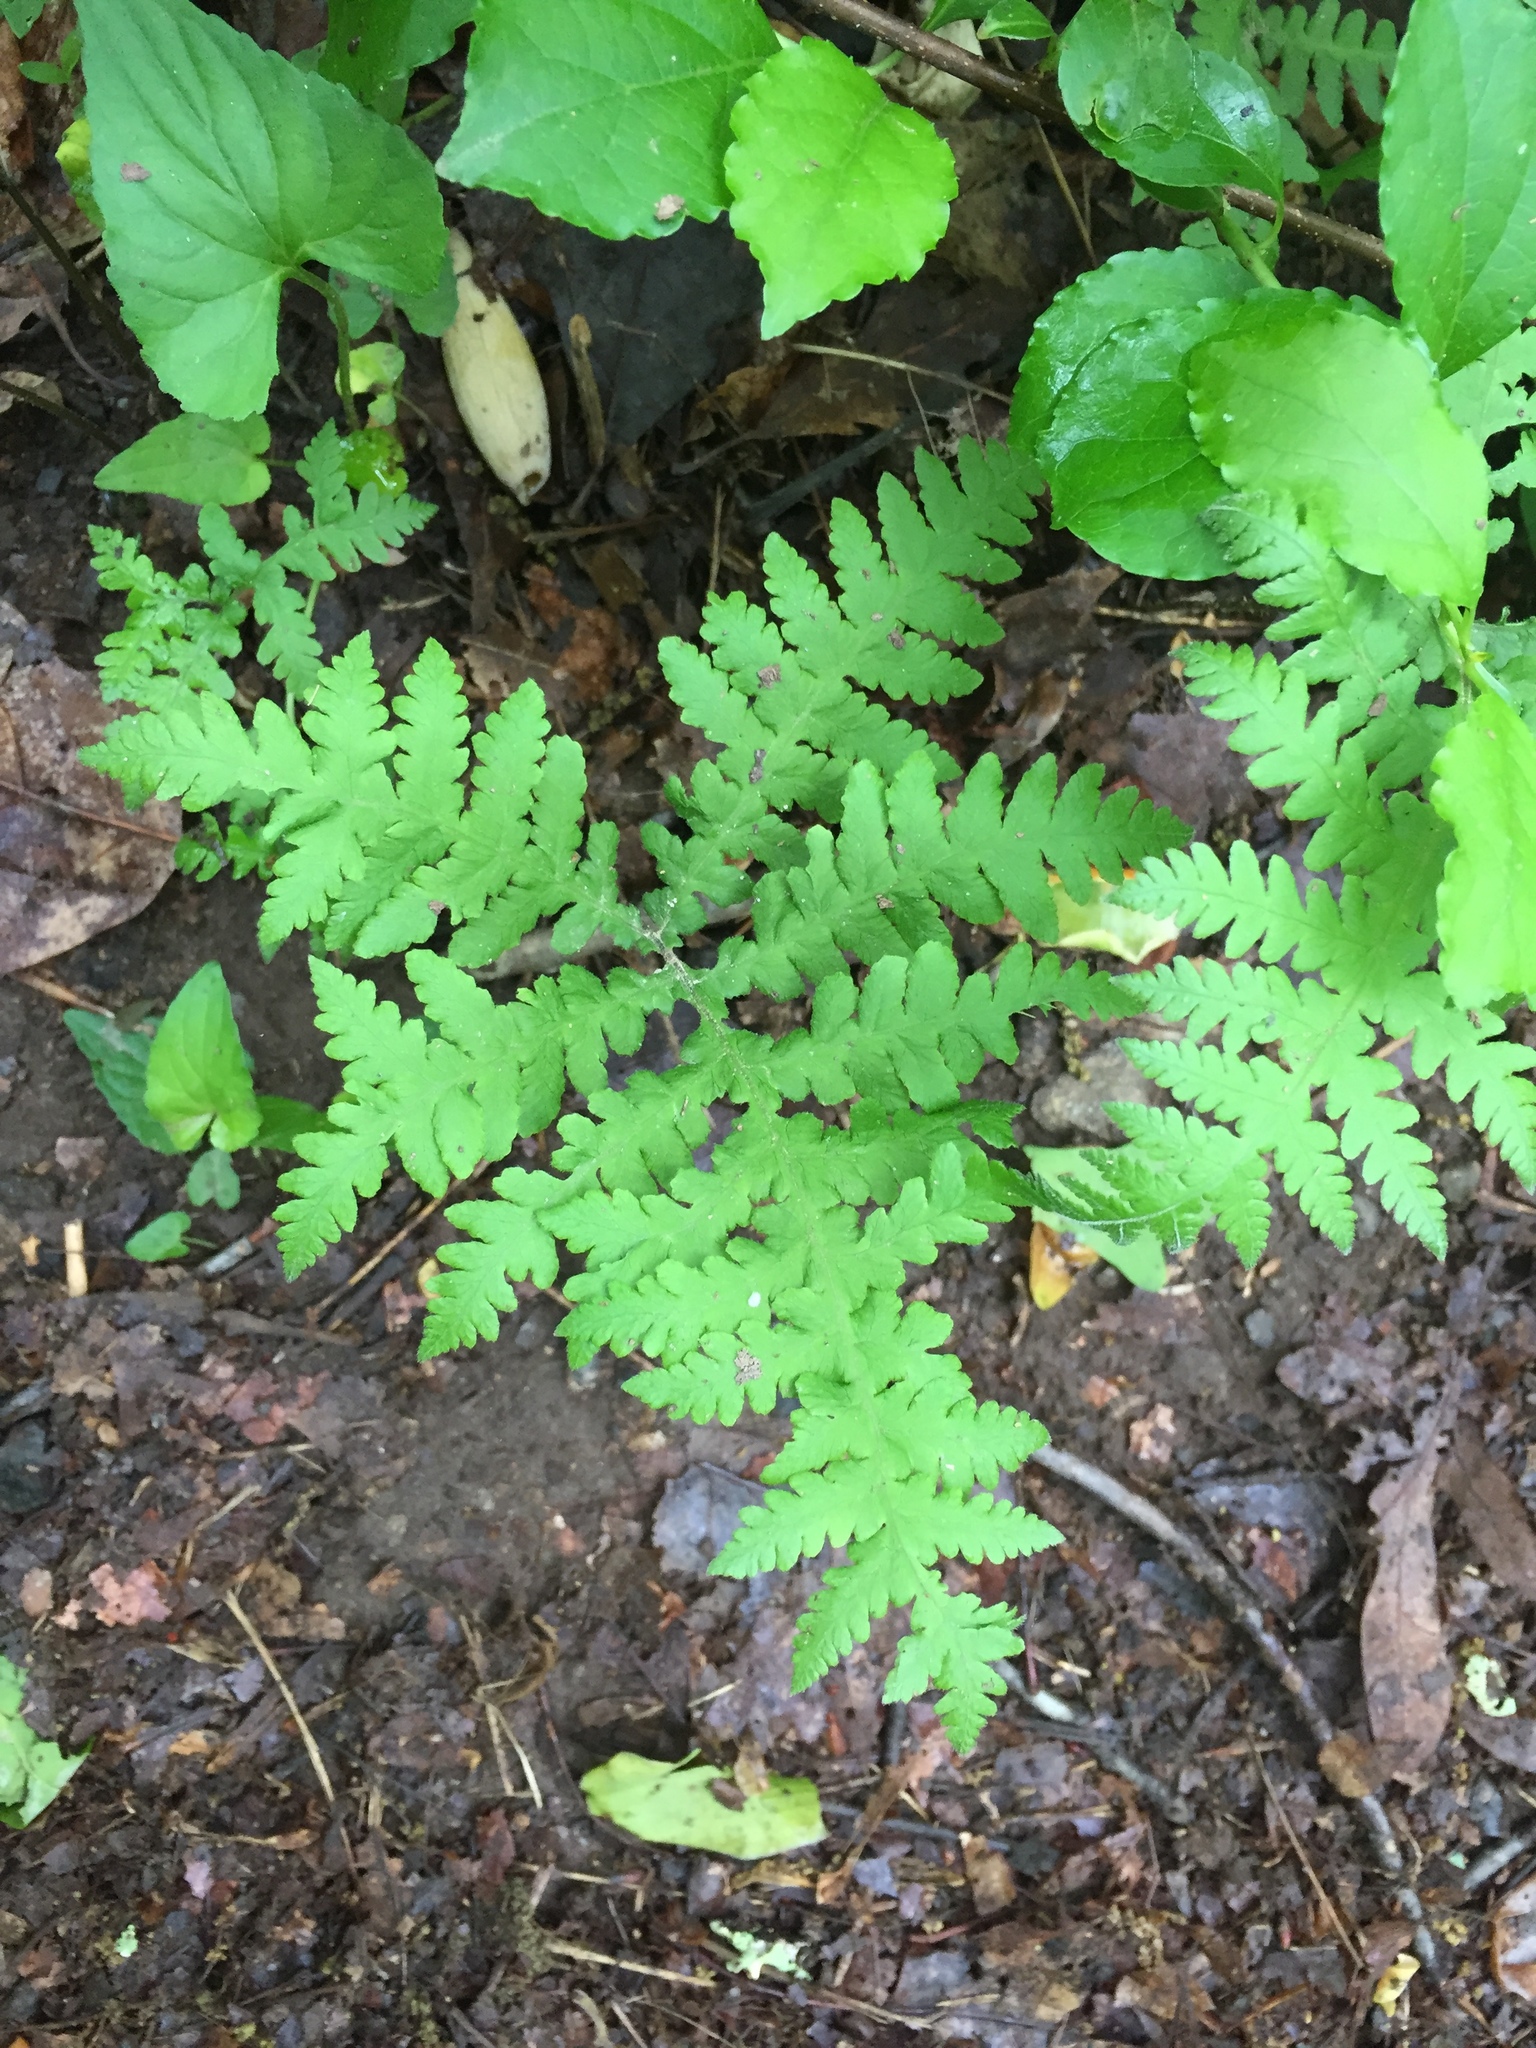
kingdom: Plantae
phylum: Tracheophyta
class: Polypodiopsida
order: Polypodiales
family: Thelypteridaceae
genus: Phegopteris
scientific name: Phegopteris hexagonoptera
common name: Broad beech fern
